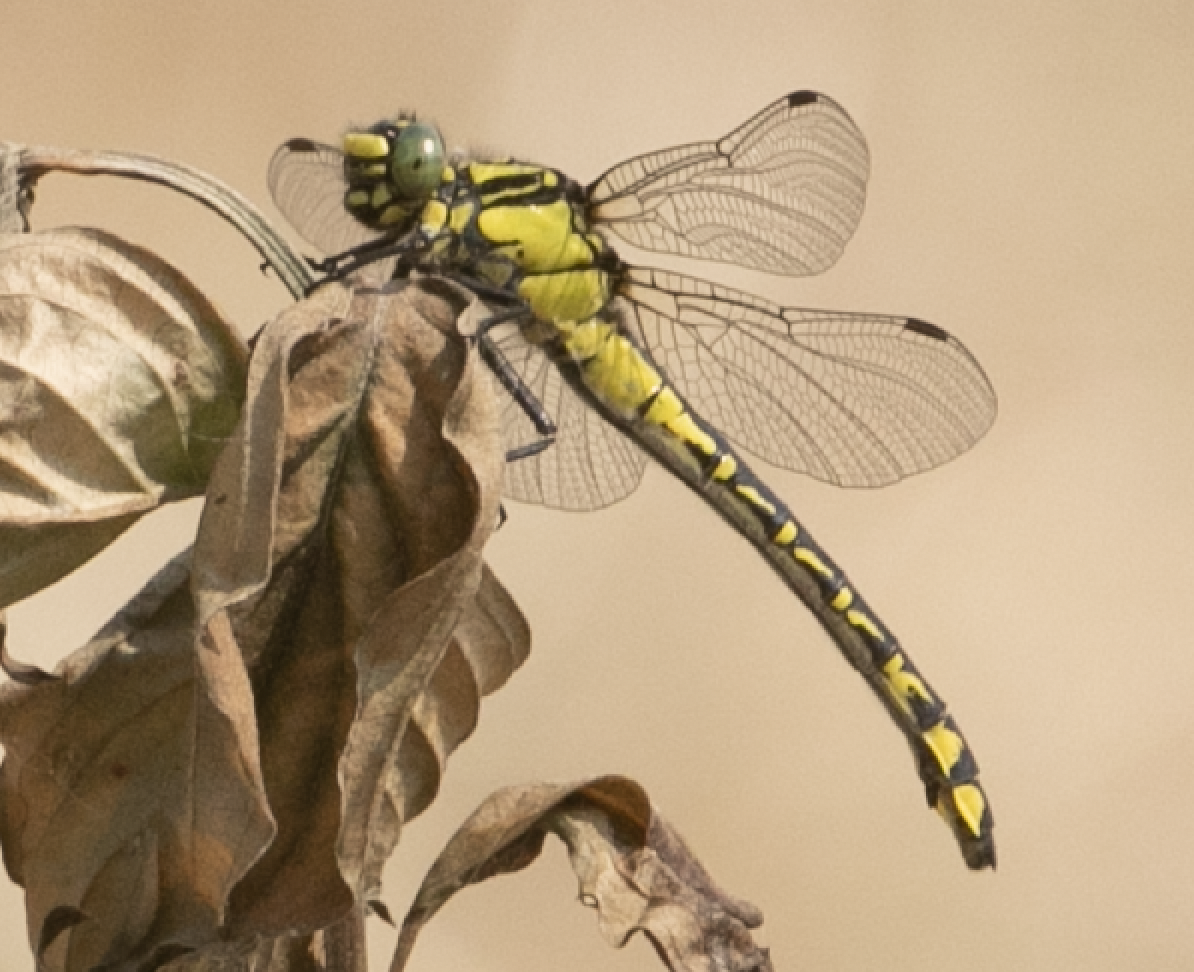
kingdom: Animalia
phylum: Arthropoda
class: Insecta
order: Odonata
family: Gomphidae
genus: Gomphus
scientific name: Gomphus vulgatissimus
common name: Club-tailed dragonfly
